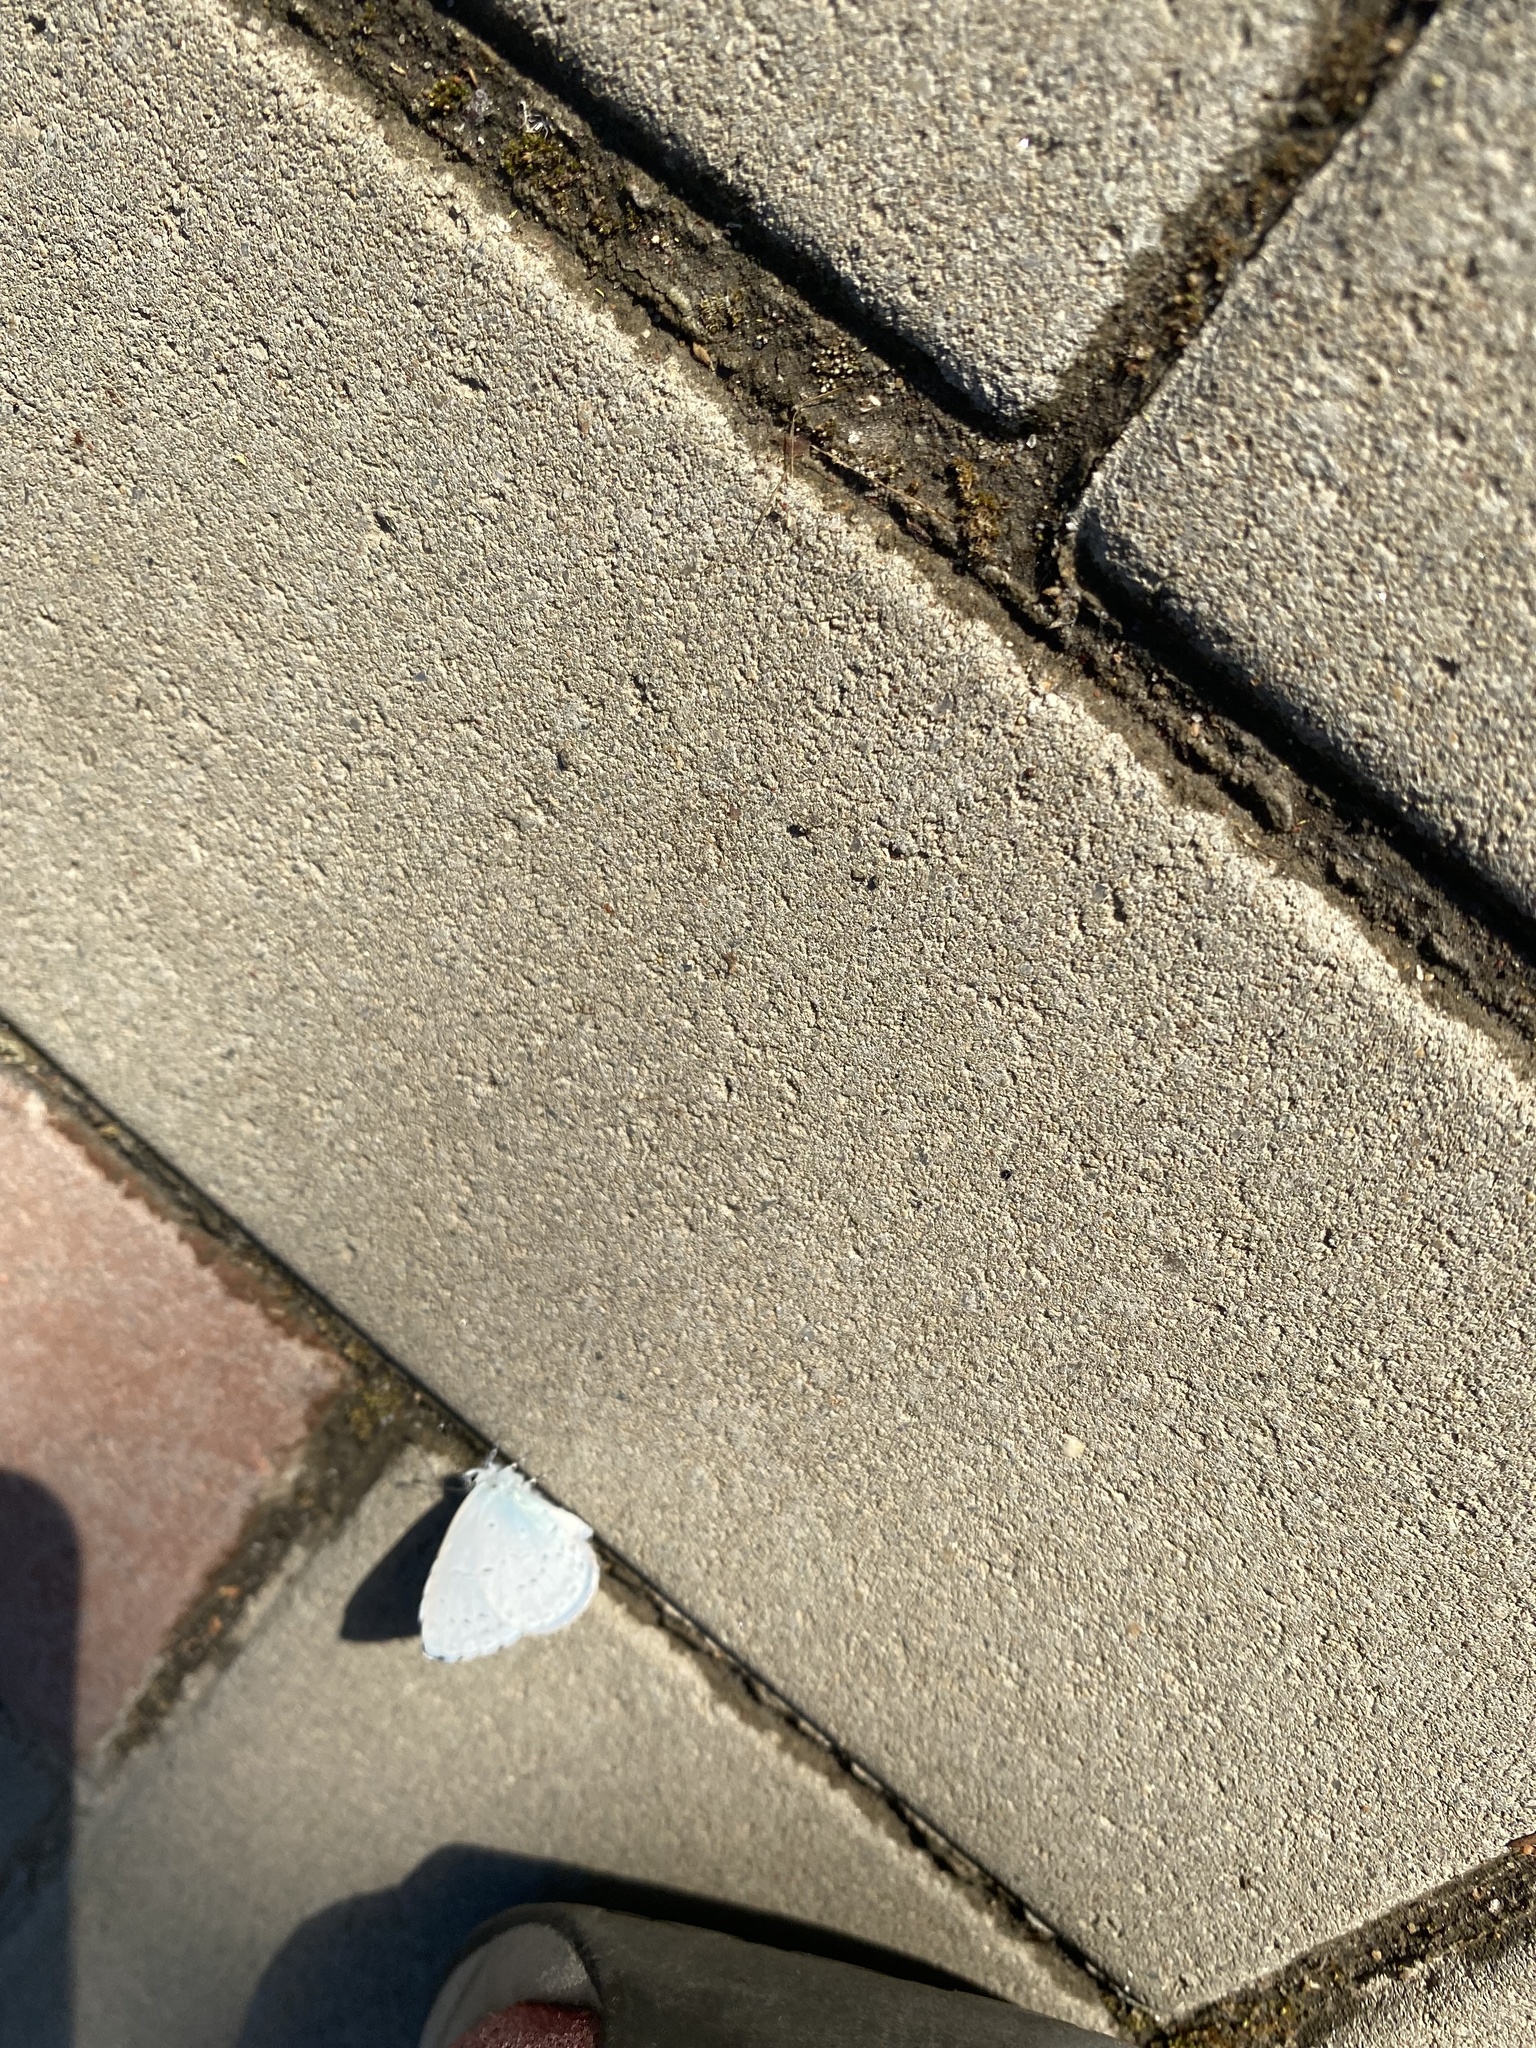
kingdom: Animalia
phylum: Arthropoda
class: Insecta
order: Lepidoptera
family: Lycaenidae
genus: Celastrina
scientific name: Celastrina argiolus
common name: Holly blue
